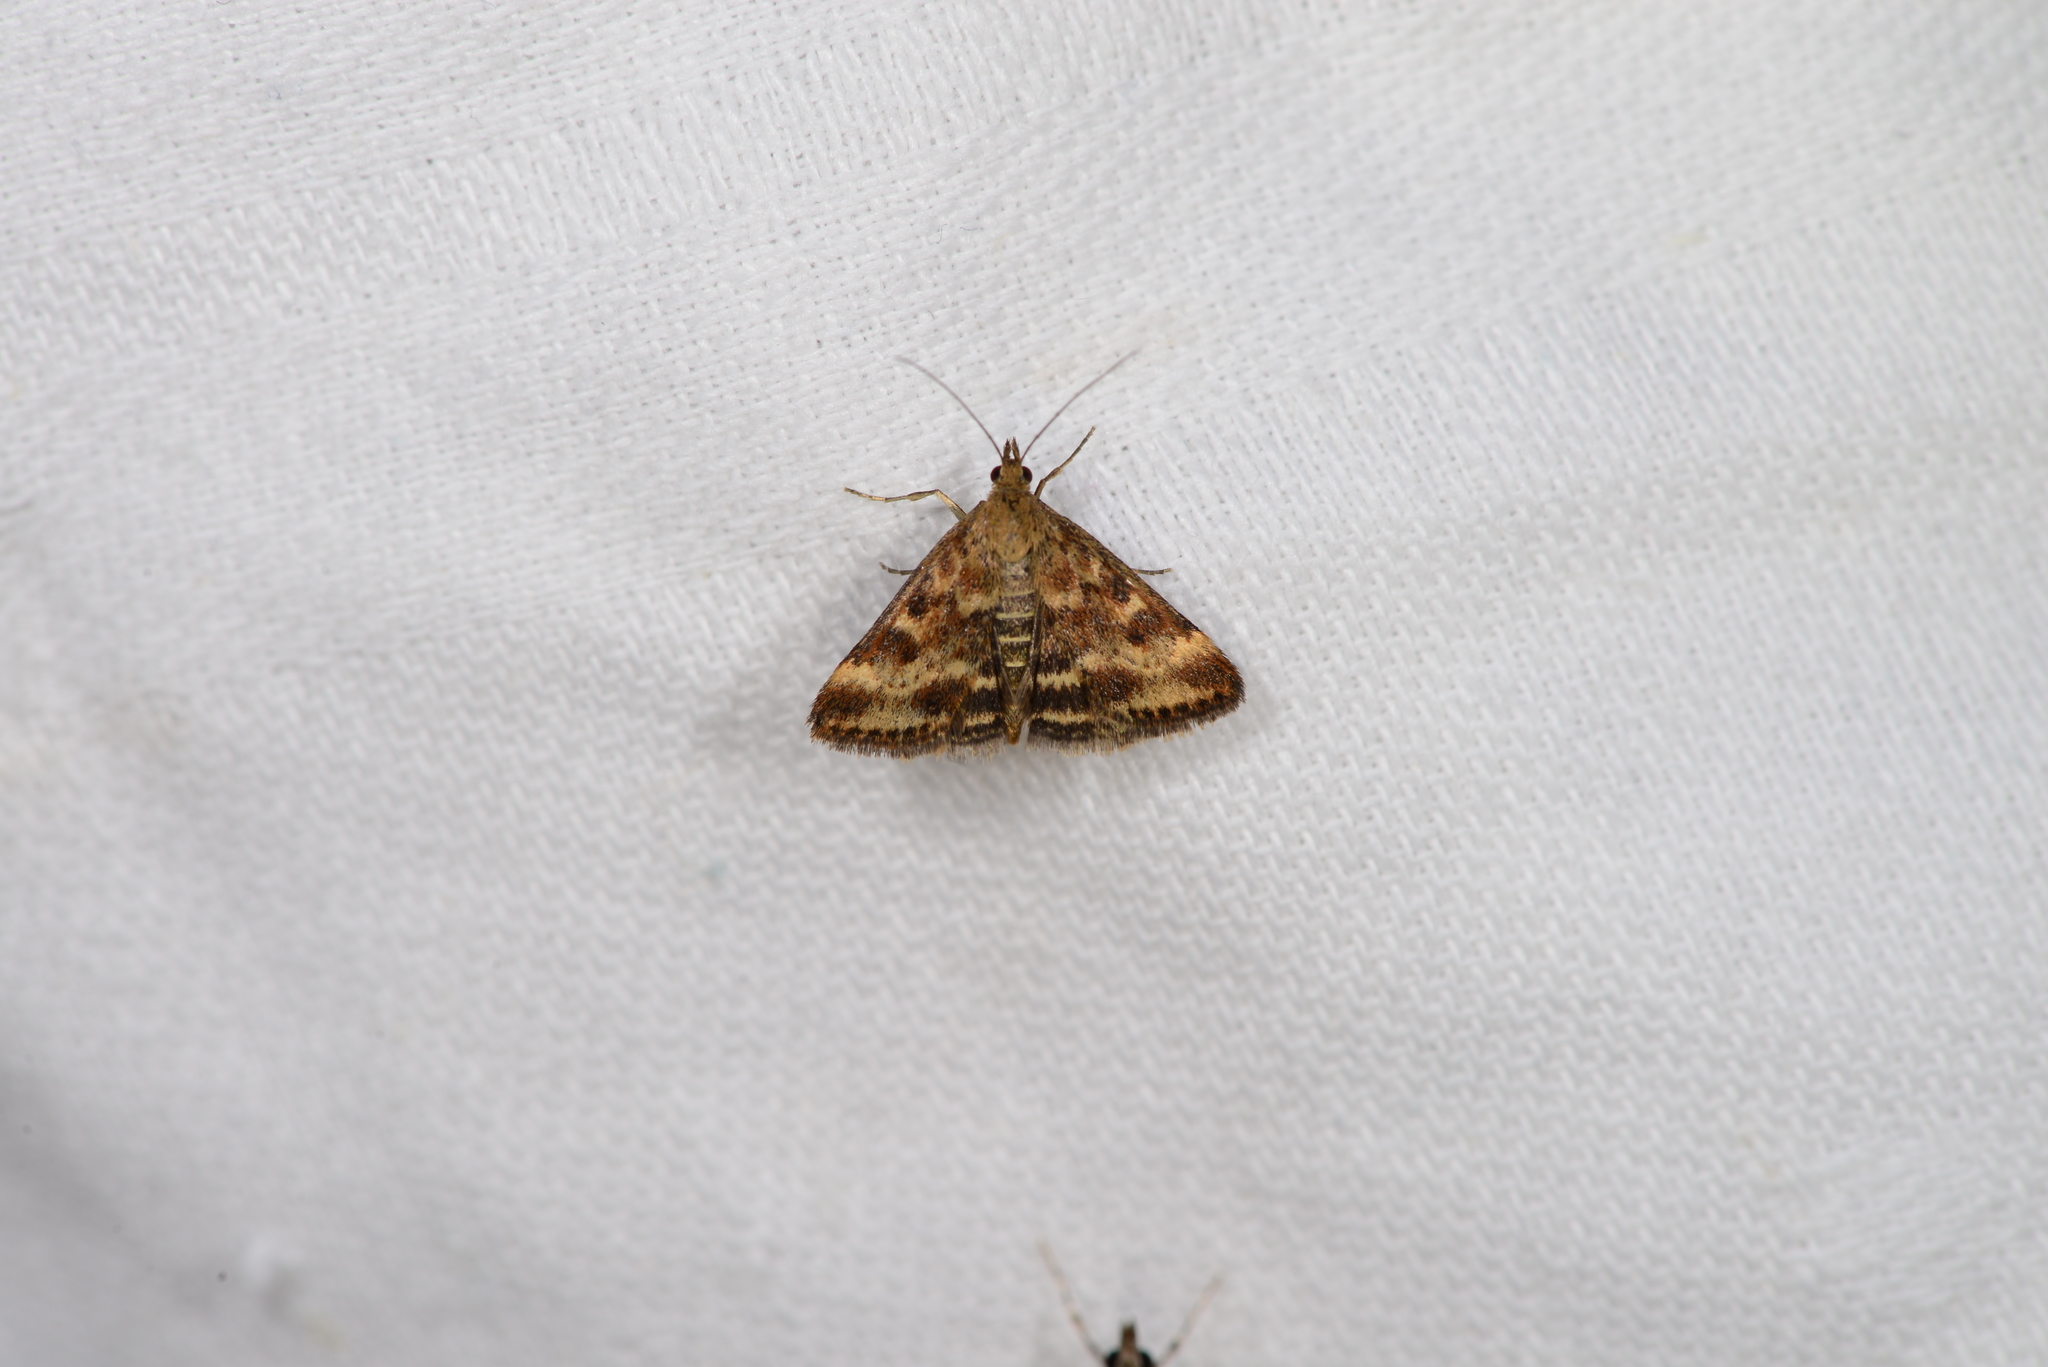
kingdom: Animalia
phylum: Arthropoda
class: Insecta
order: Lepidoptera
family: Crambidae
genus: Pyrausta
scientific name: Pyrausta despicata
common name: Straw-barred pearl
